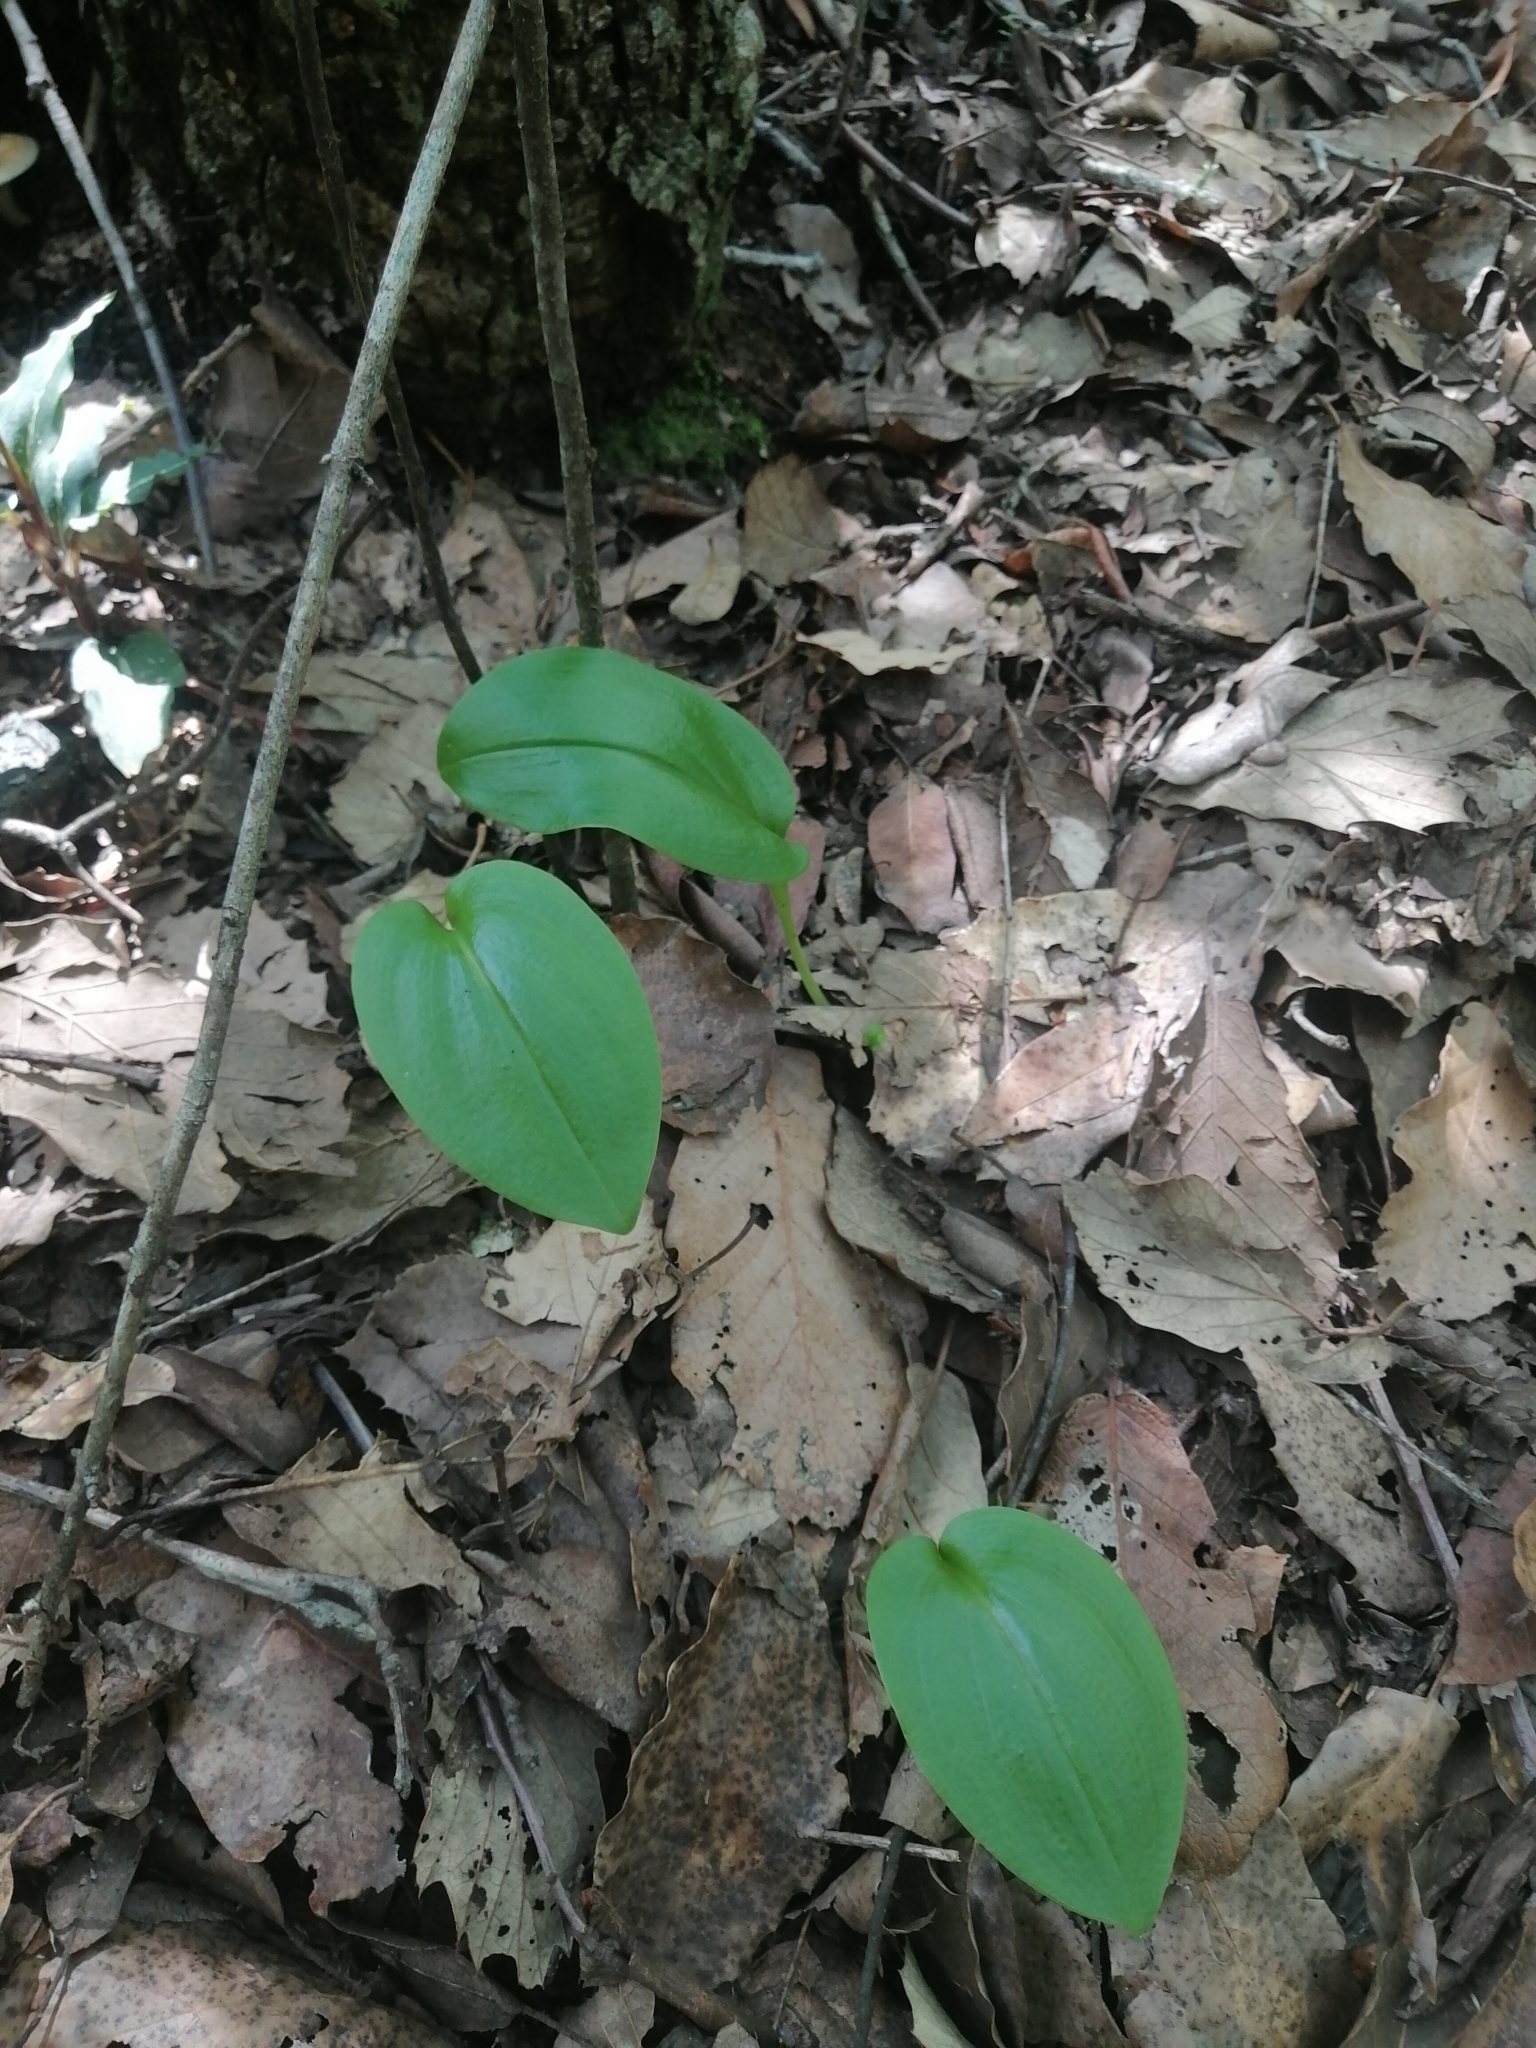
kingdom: Plantae
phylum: Tracheophyta
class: Liliopsida
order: Asparagales
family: Orchidaceae
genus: Malaxis
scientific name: Malaxis unifolia
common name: Green adder's-mouth
